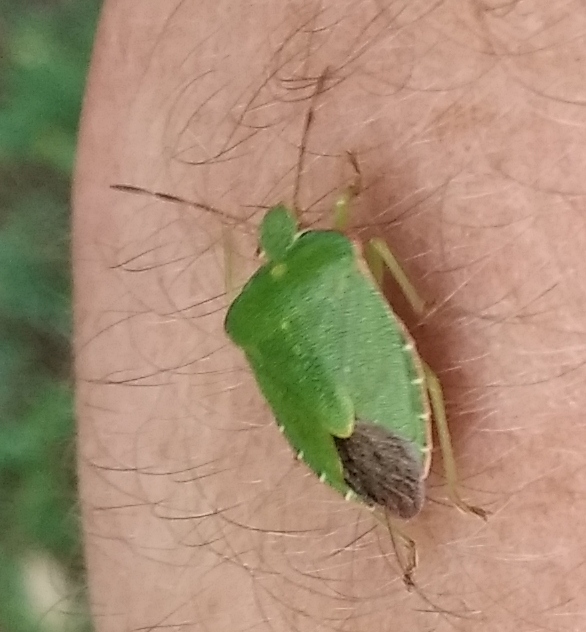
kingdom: Animalia
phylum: Arthropoda
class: Insecta
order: Hemiptera
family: Pentatomidae
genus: Palomena
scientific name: Palomena prasina
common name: Green shieldbug
